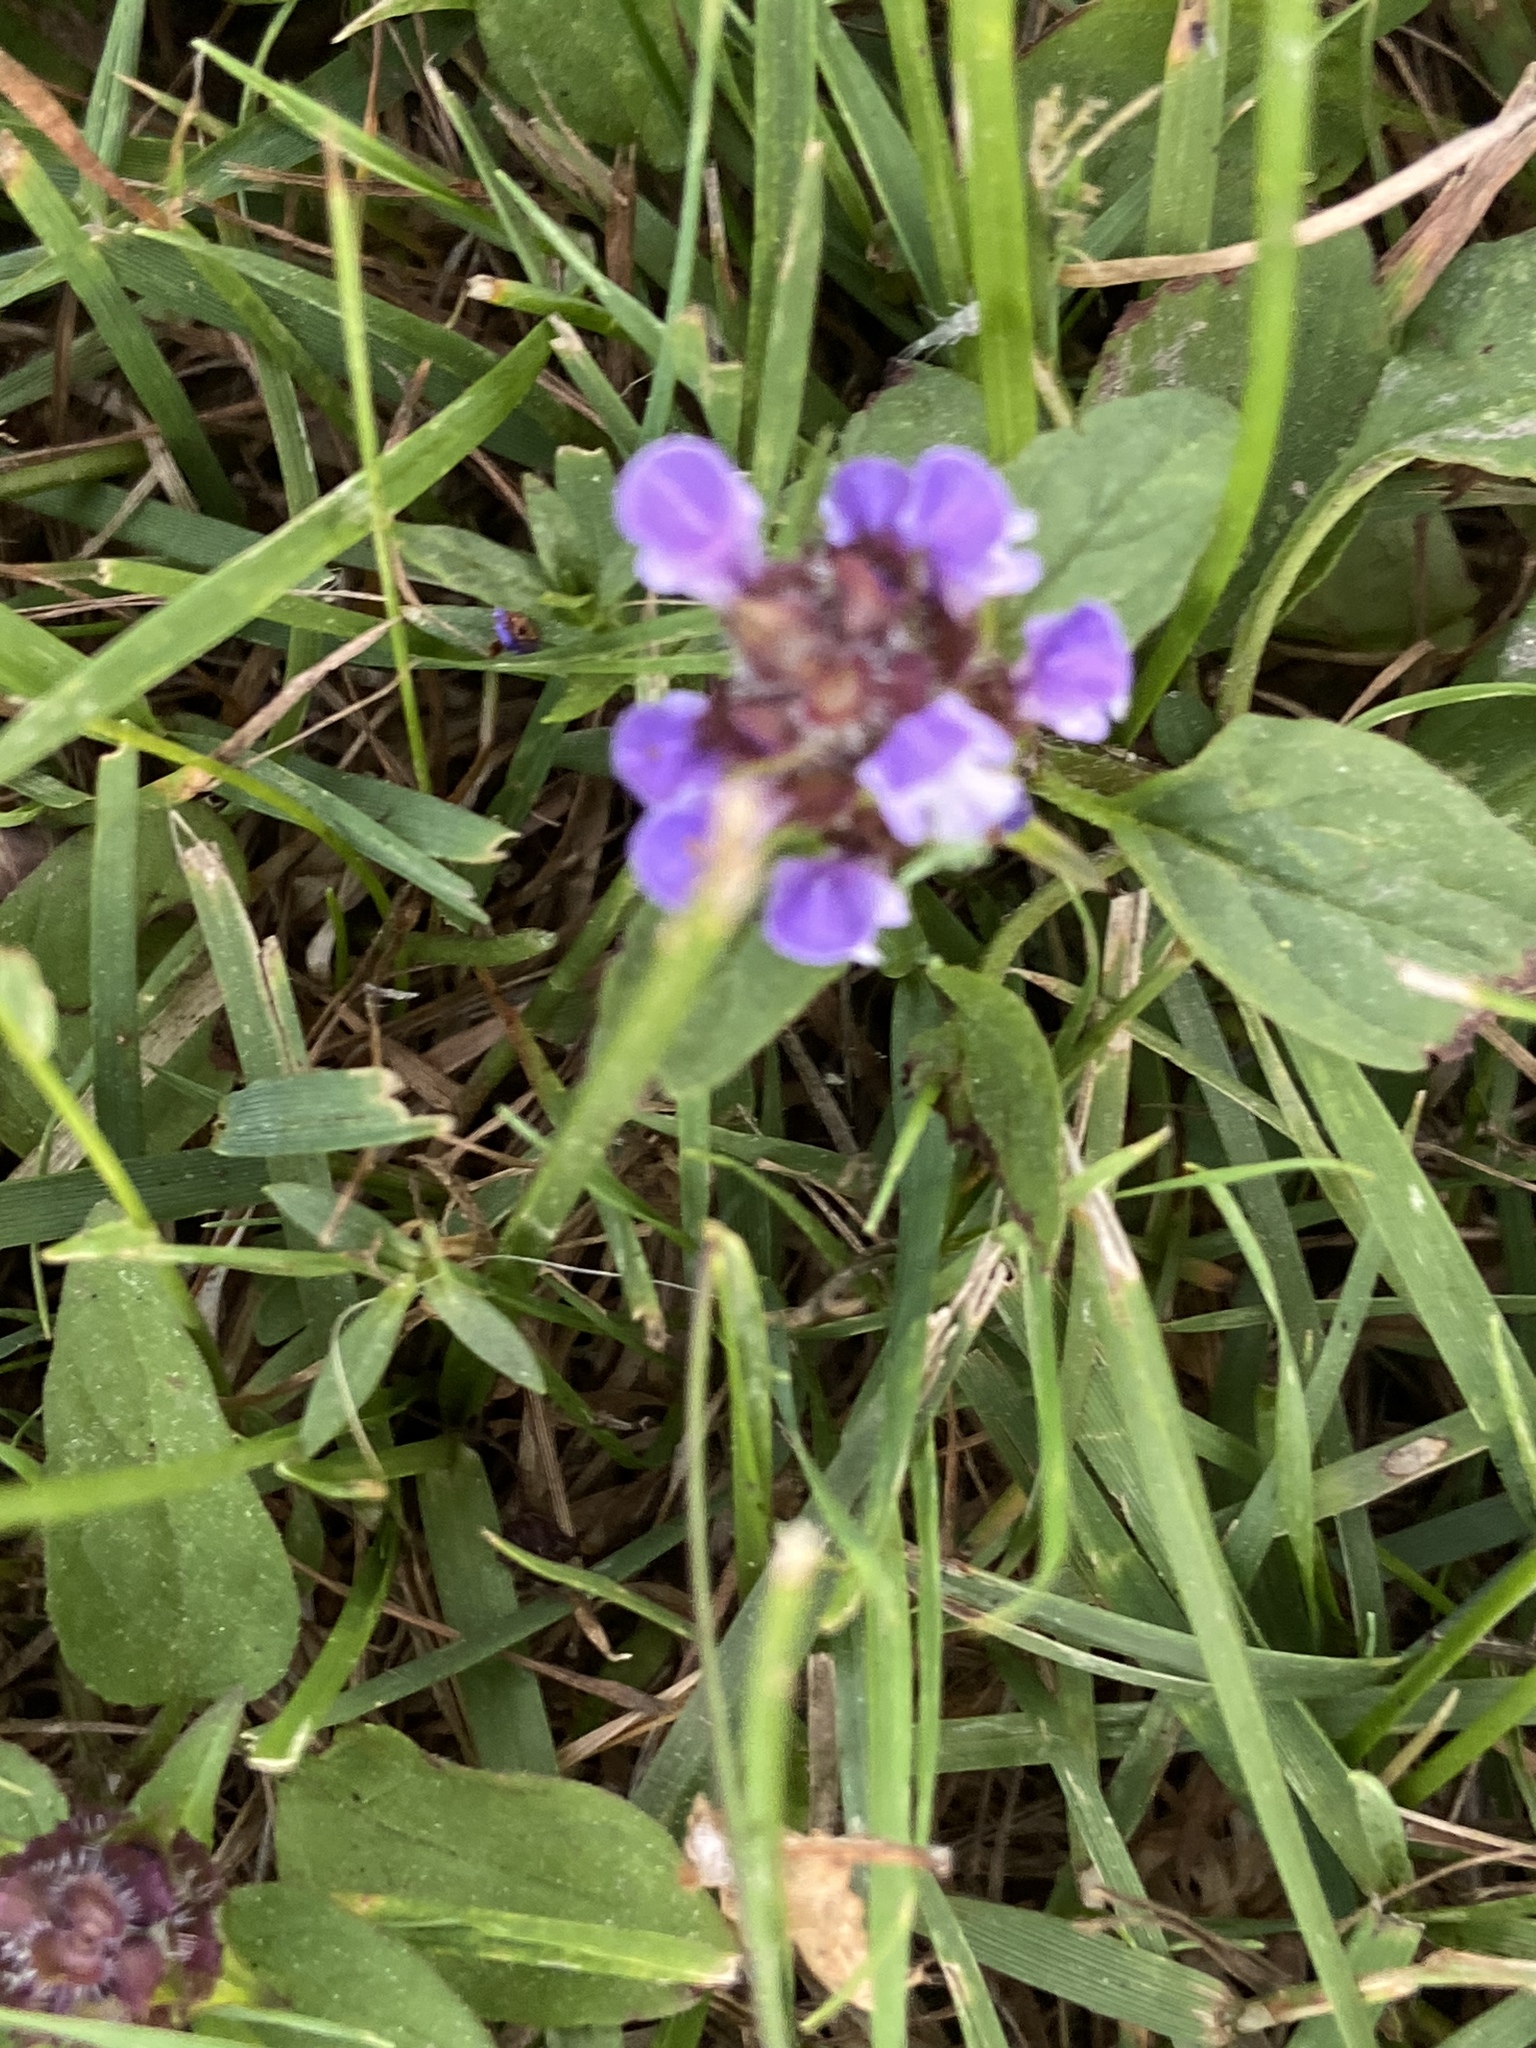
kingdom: Plantae
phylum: Tracheophyta
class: Magnoliopsida
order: Lamiales
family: Lamiaceae
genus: Prunella
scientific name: Prunella vulgaris
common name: Heal-all
